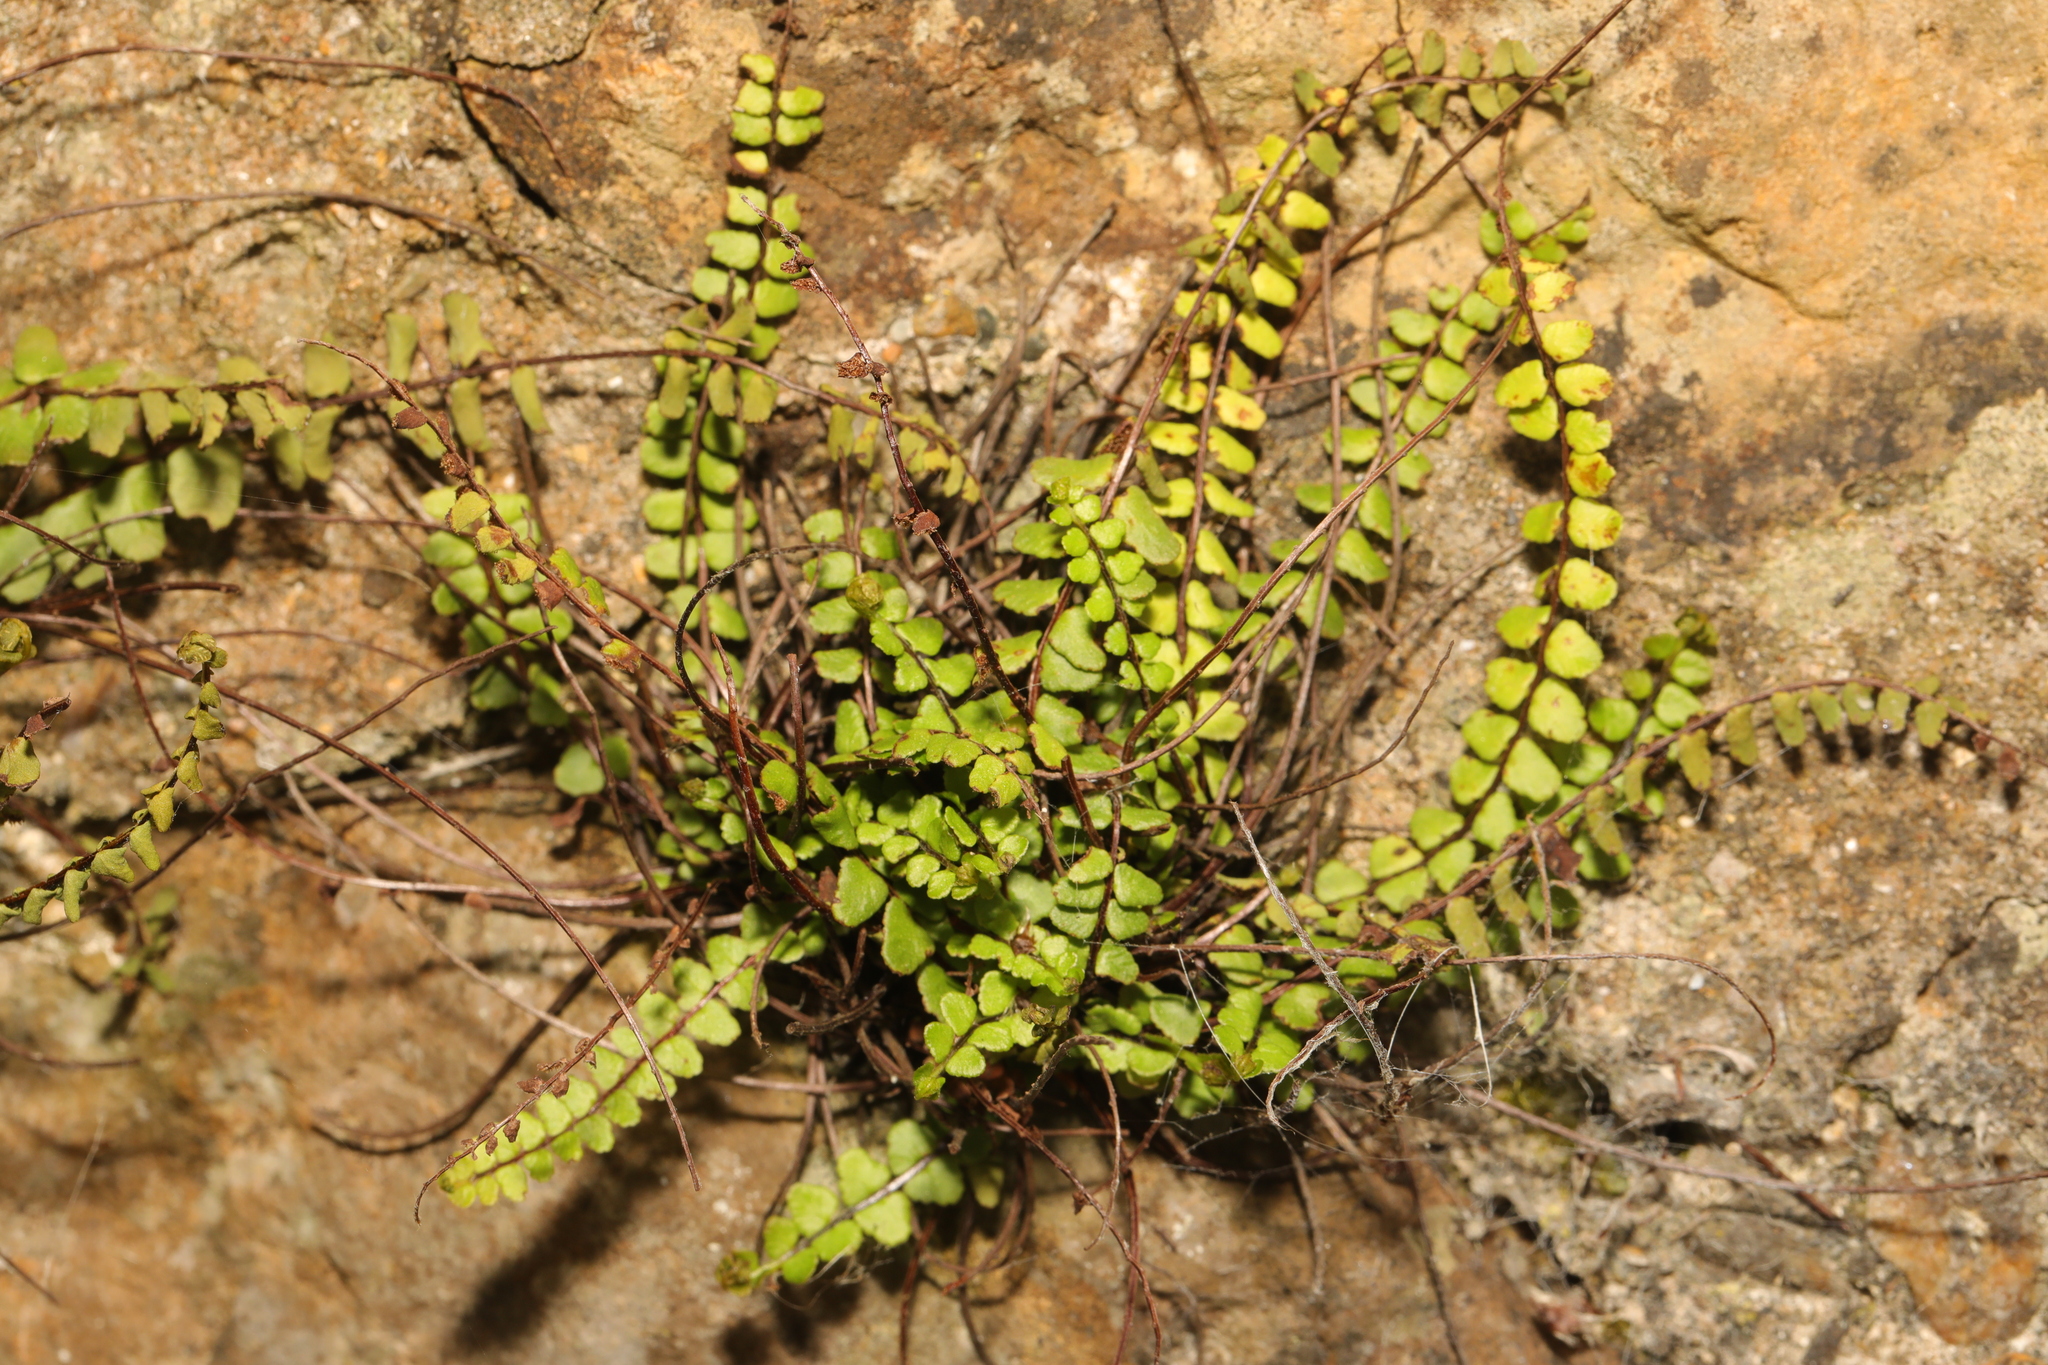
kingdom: Plantae
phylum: Tracheophyta
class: Polypodiopsida
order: Polypodiales
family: Aspleniaceae
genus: Asplenium
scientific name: Asplenium trichomanes
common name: Maidenhair spleenwort
